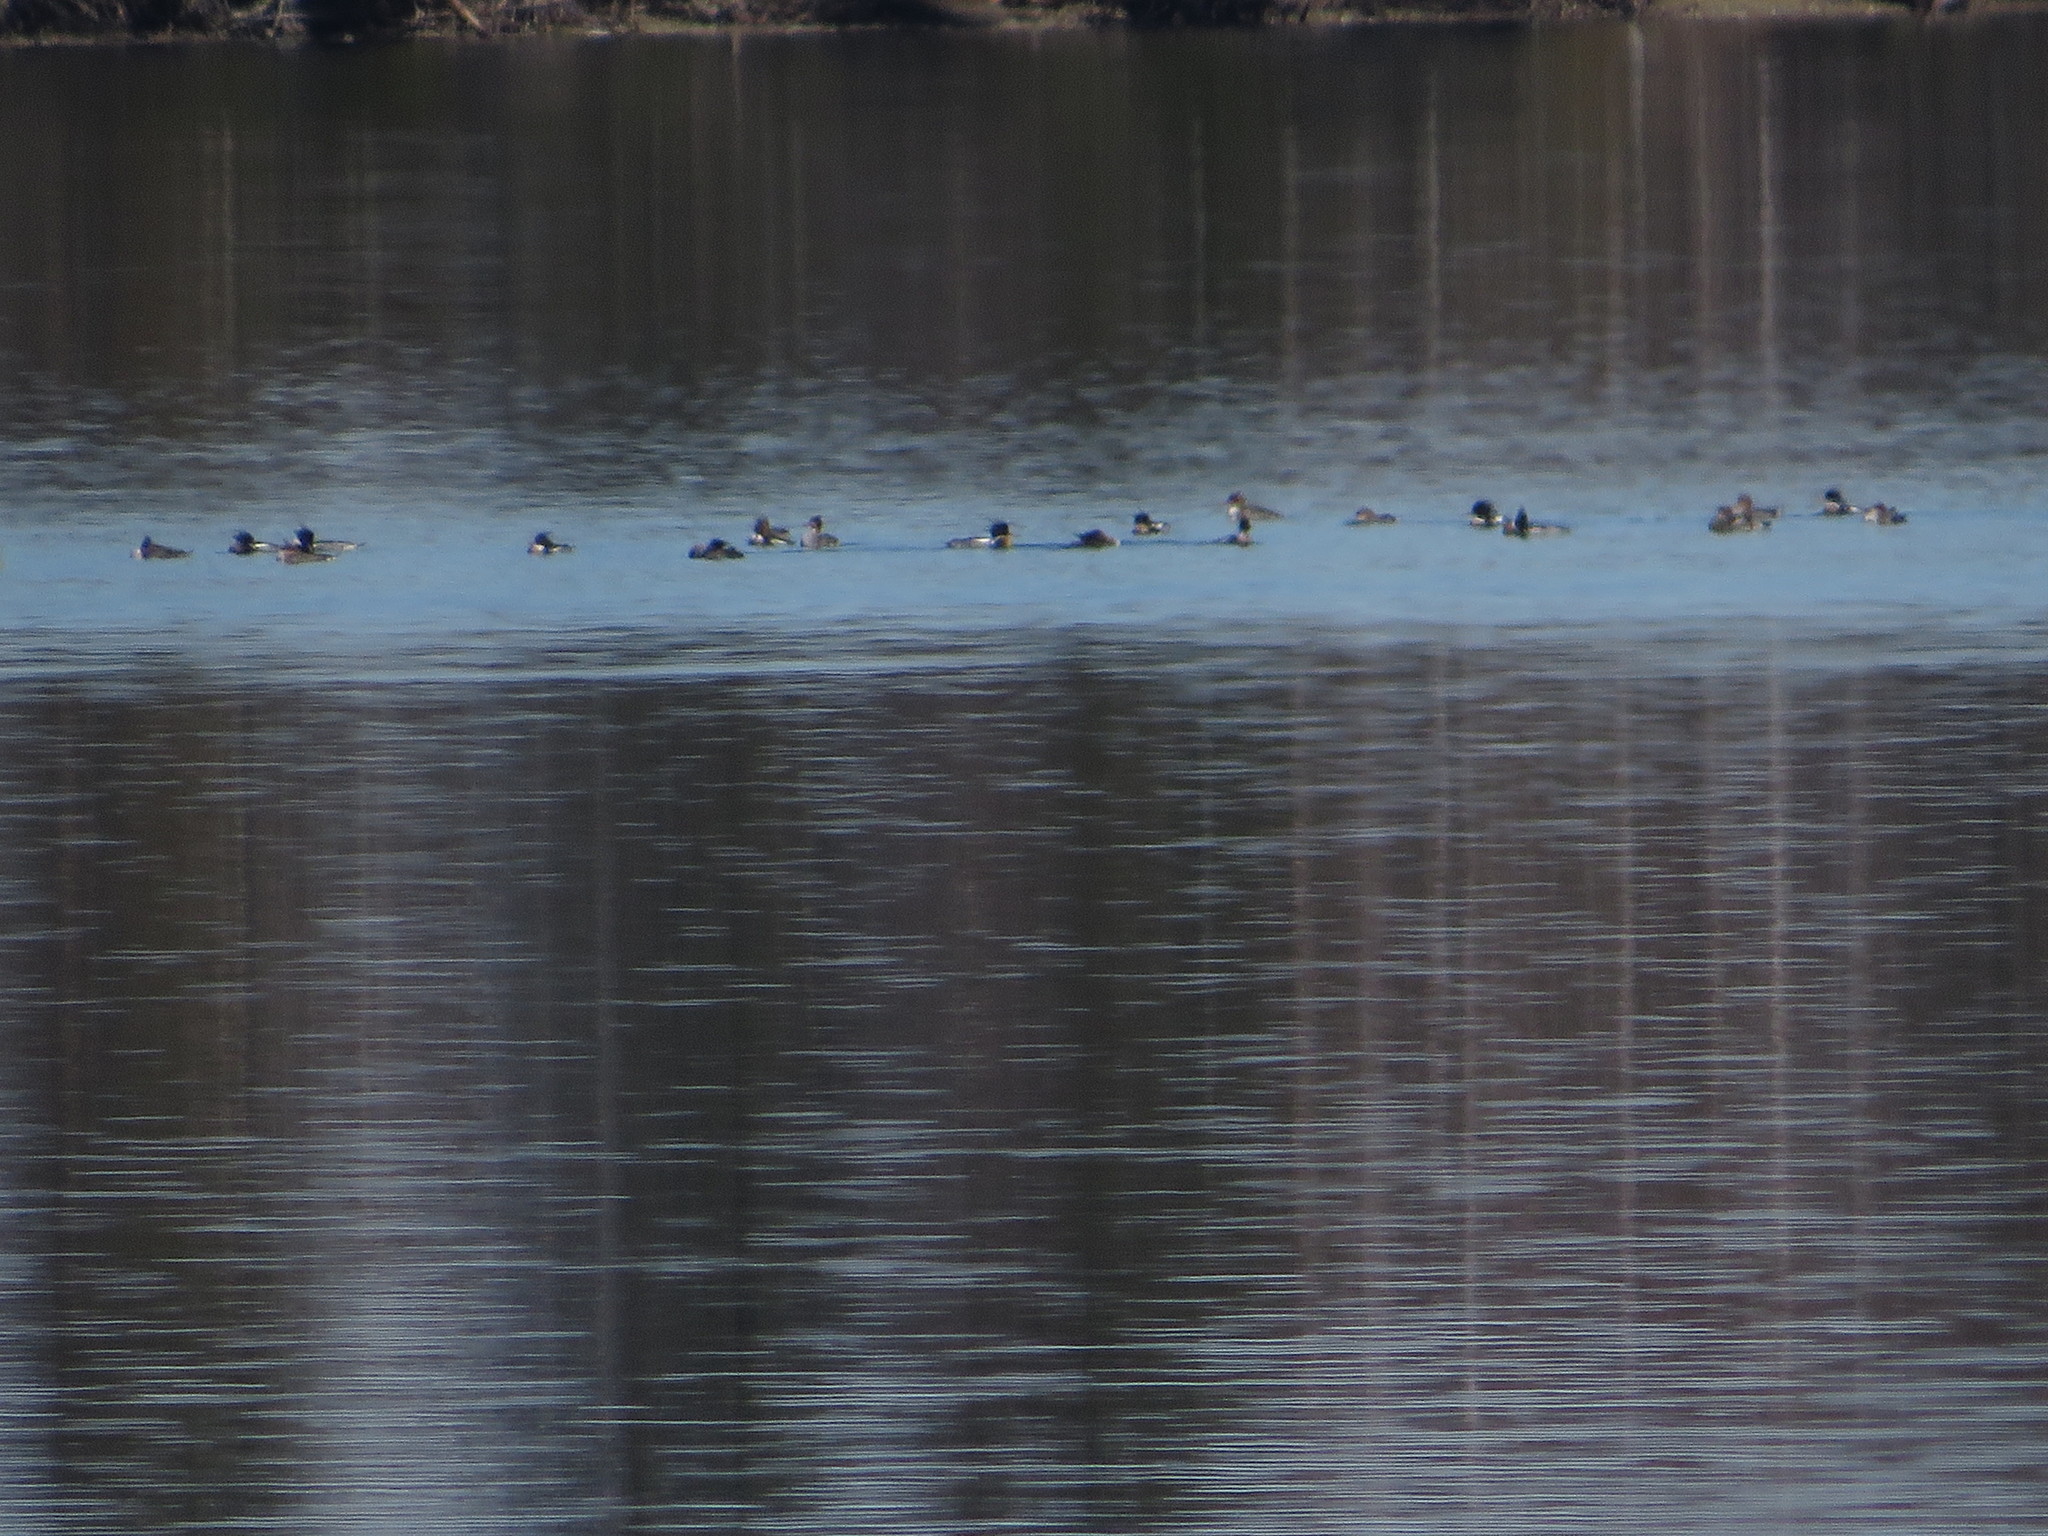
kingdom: Animalia
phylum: Chordata
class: Aves
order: Anseriformes
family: Anatidae
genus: Mergus
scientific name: Mergus serrator
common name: Red-breasted merganser
